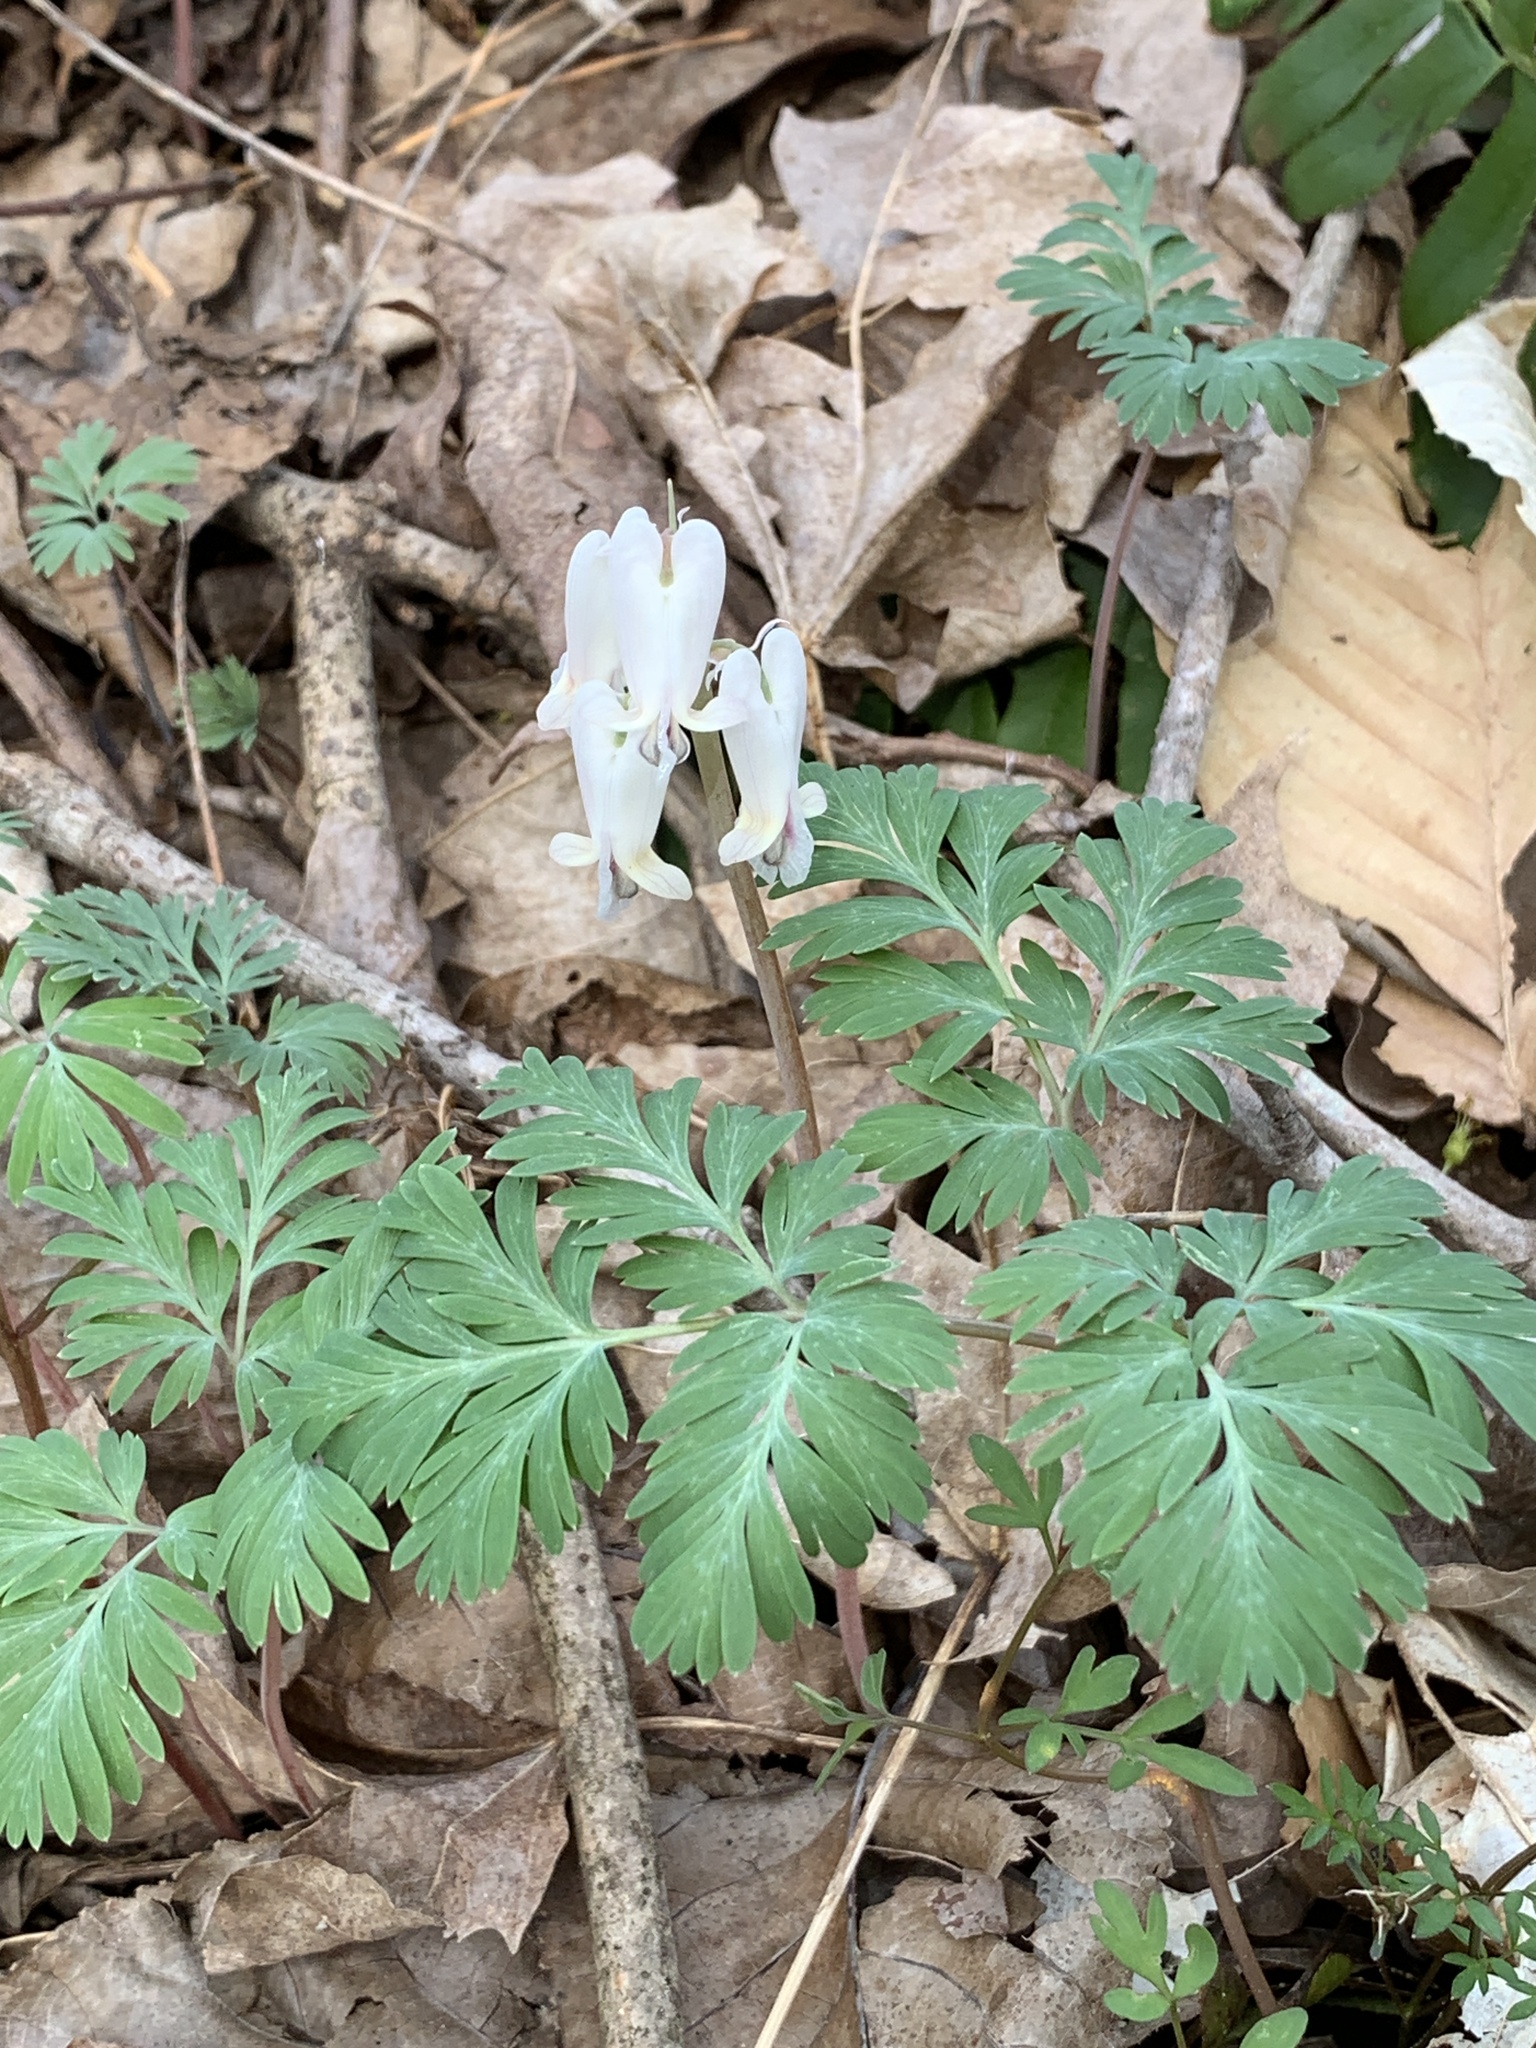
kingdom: Plantae
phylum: Tracheophyta
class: Magnoliopsida
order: Ranunculales
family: Papaveraceae
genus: Dicentra
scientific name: Dicentra canadensis
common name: Squirrel-corn
